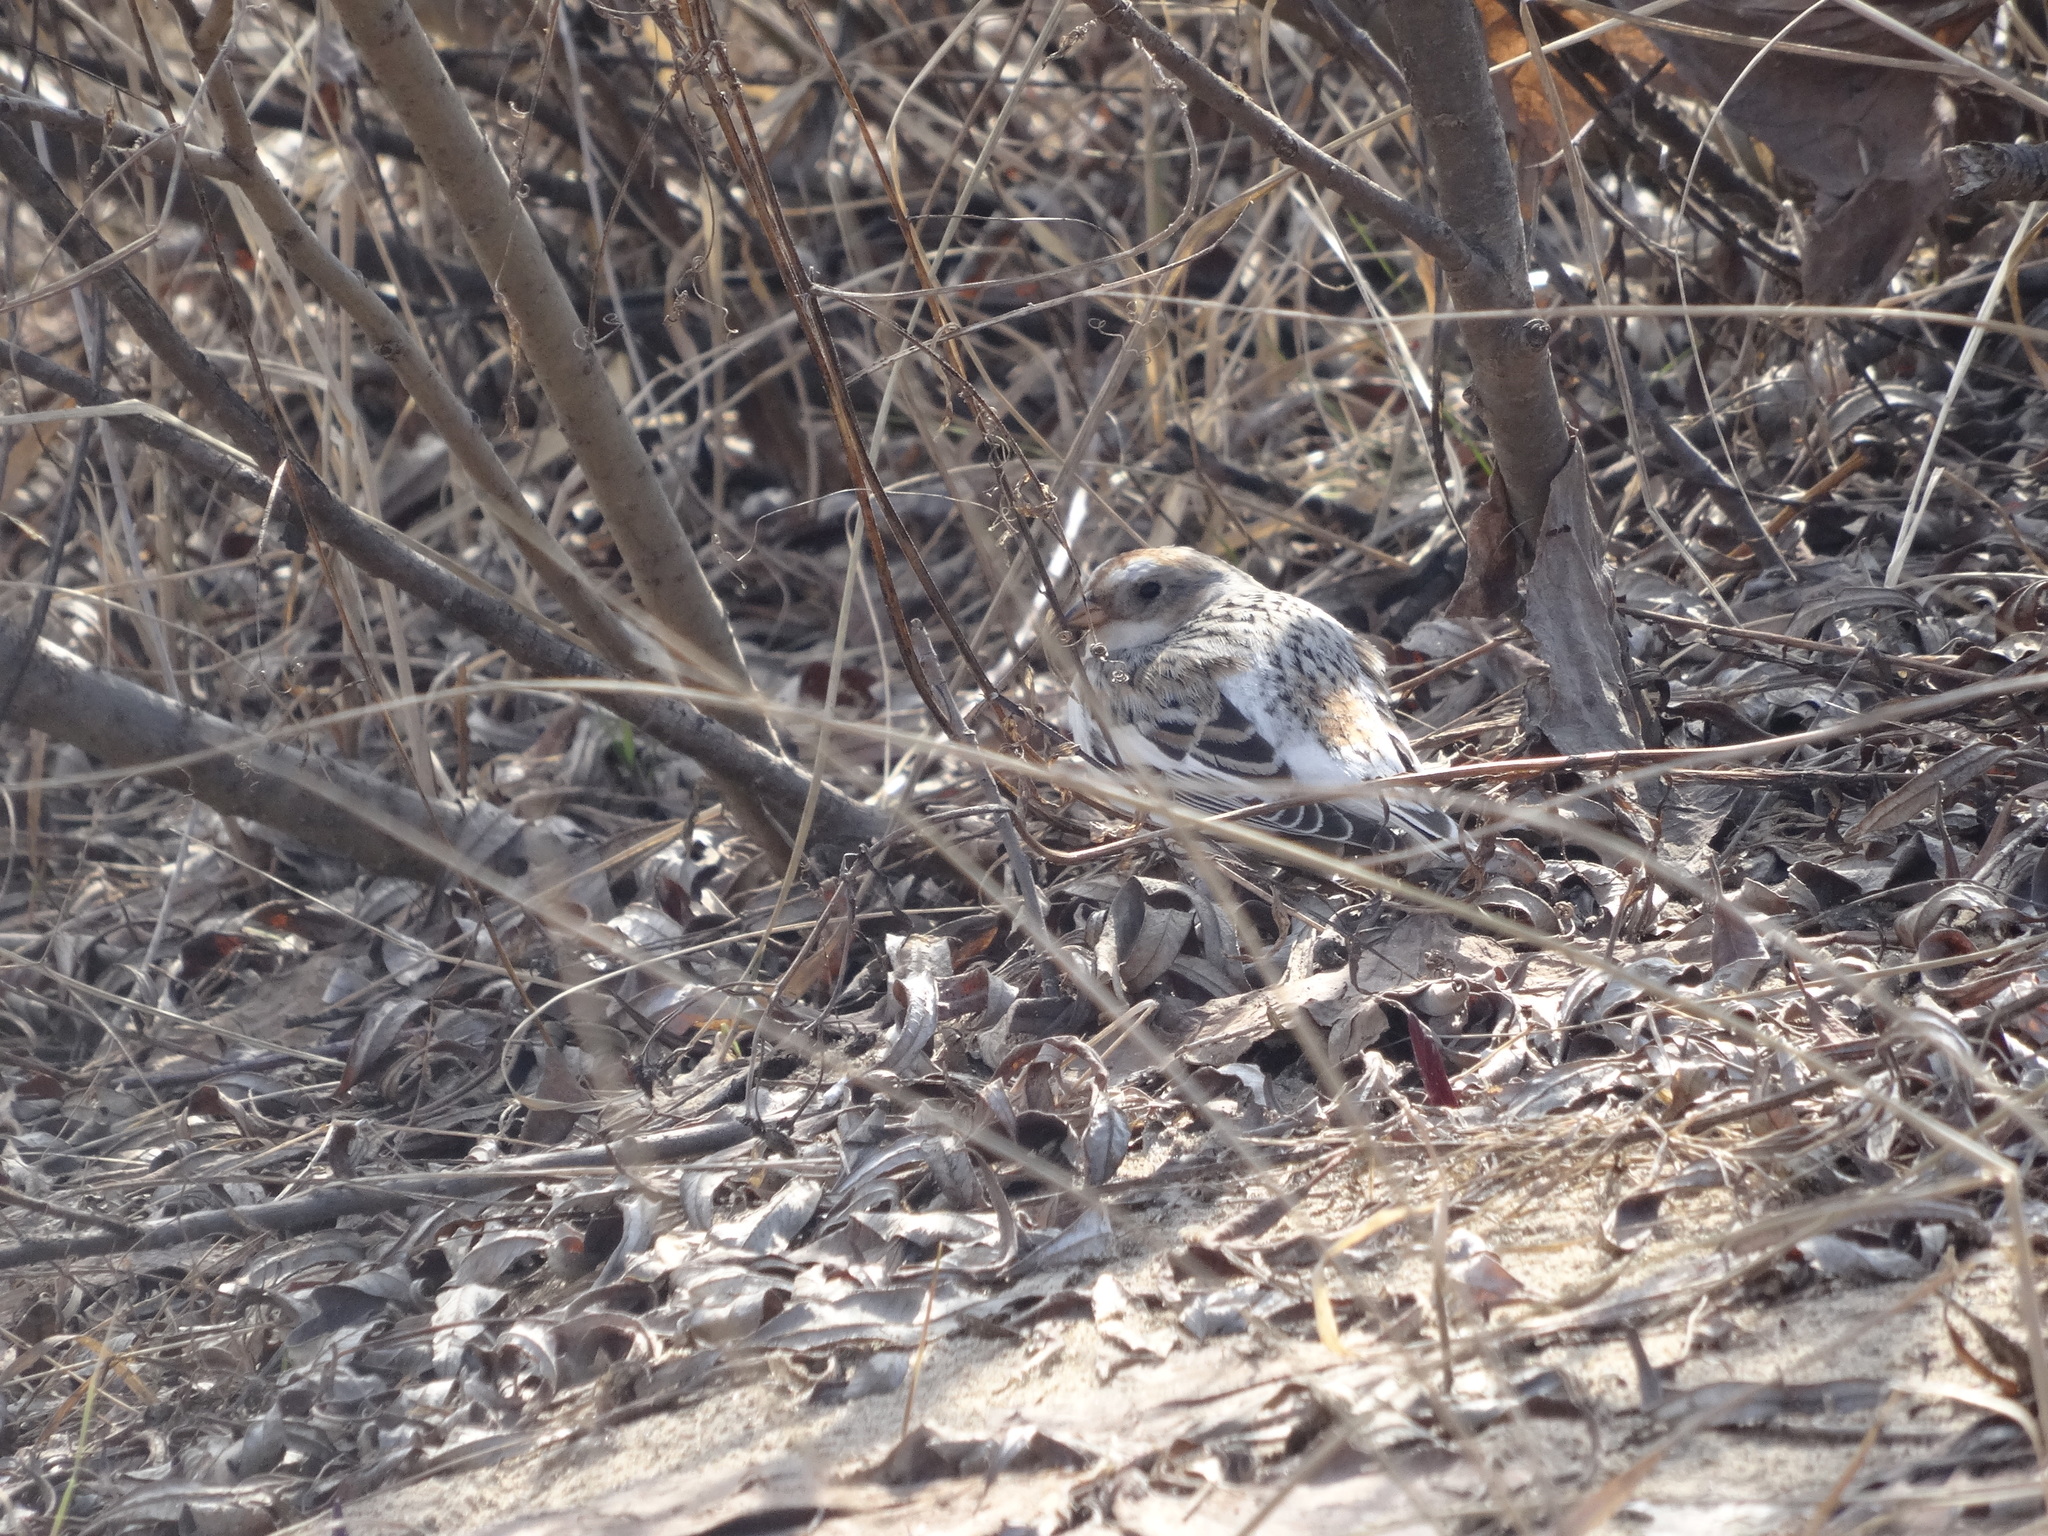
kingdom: Animalia
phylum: Chordata
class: Aves
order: Passeriformes
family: Calcariidae
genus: Plectrophenax
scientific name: Plectrophenax nivalis
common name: Snow bunting
